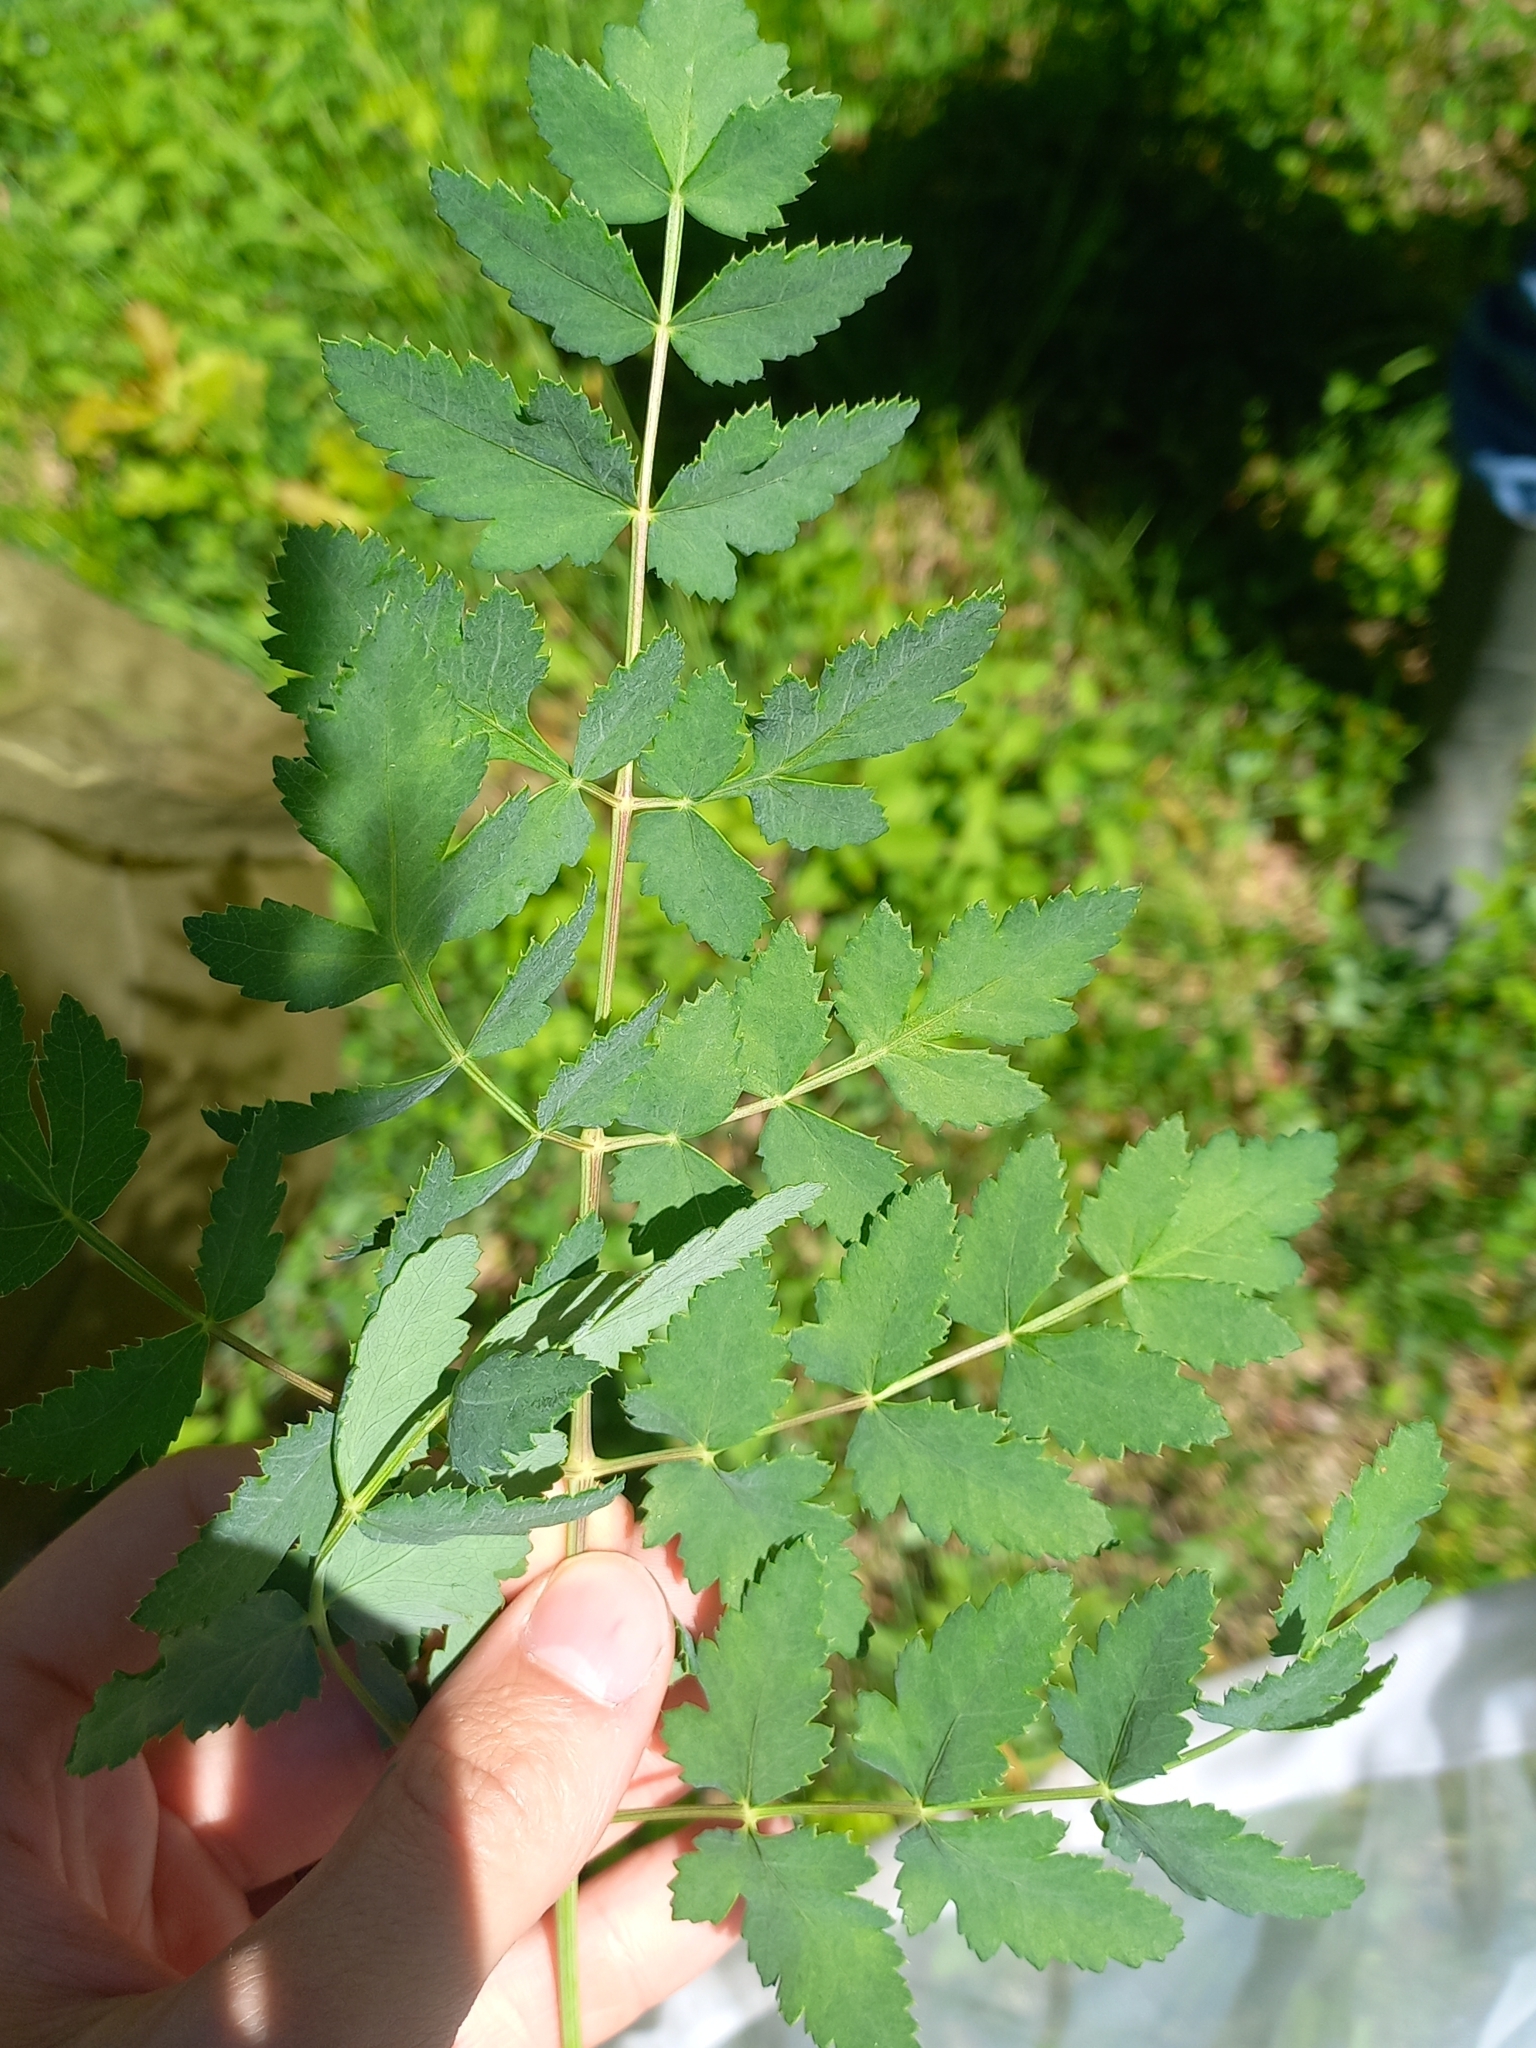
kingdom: Plantae
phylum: Tracheophyta
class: Magnoliopsida
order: Apiales
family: Apiaceae
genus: Cervaria
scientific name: Cervaria rivini
